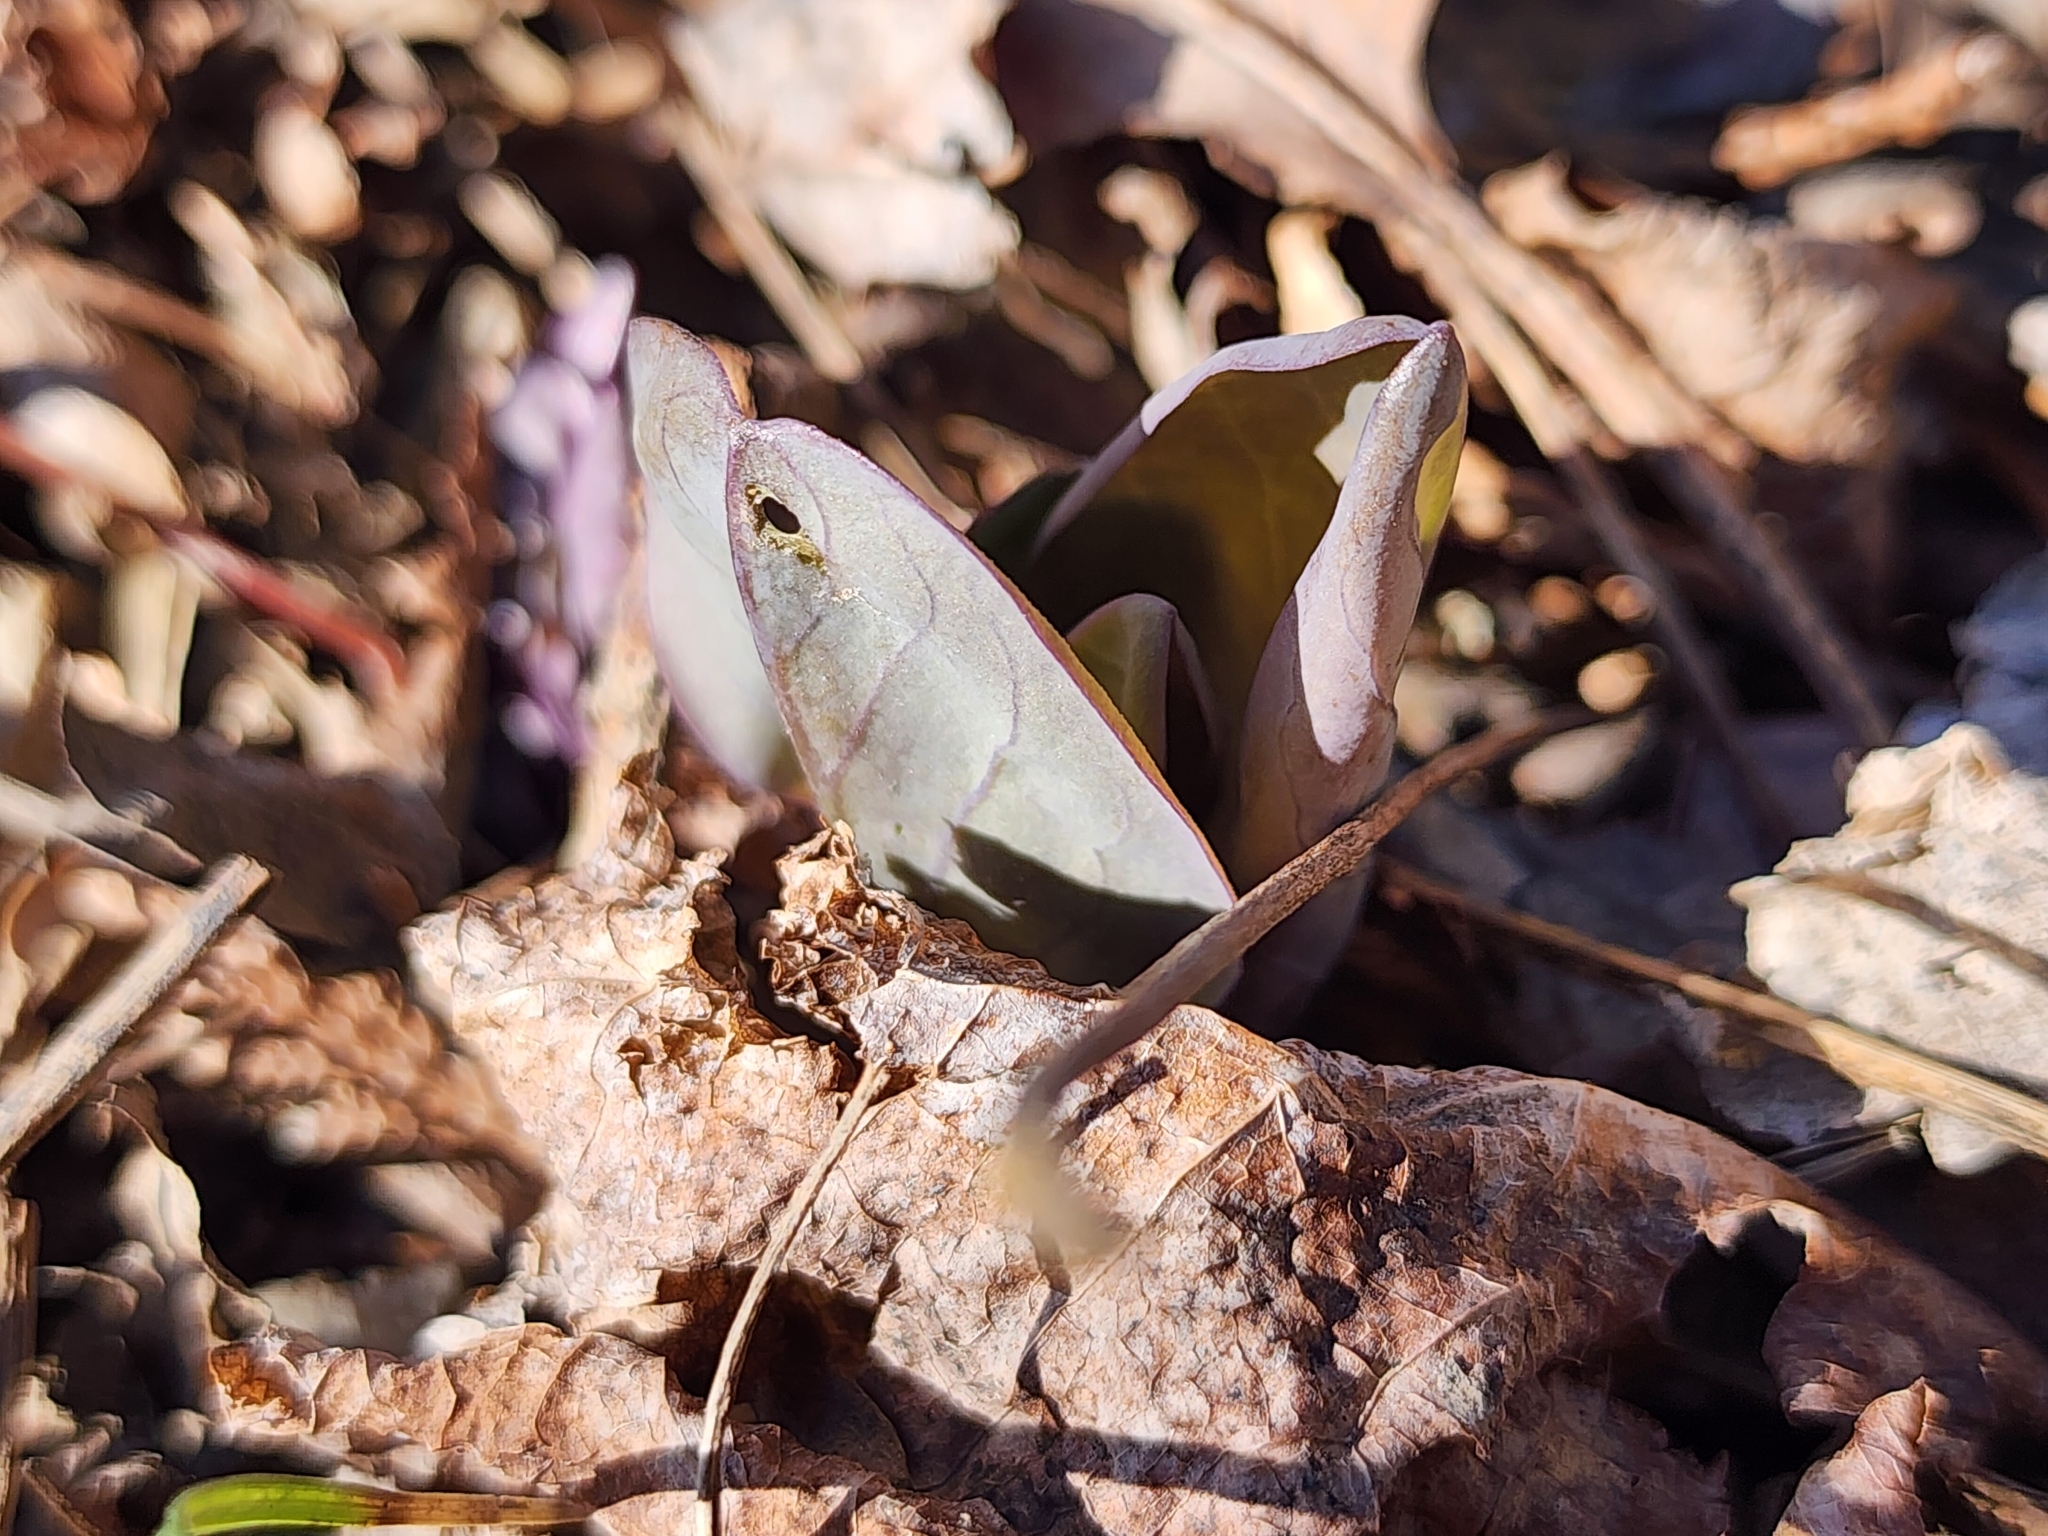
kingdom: Plantae
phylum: Tracheophyta
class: Magnoliopsida
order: Boraginales
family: Boraginaceae
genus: Mertensia
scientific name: Mertensia virginica
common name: Virginia bluebells
